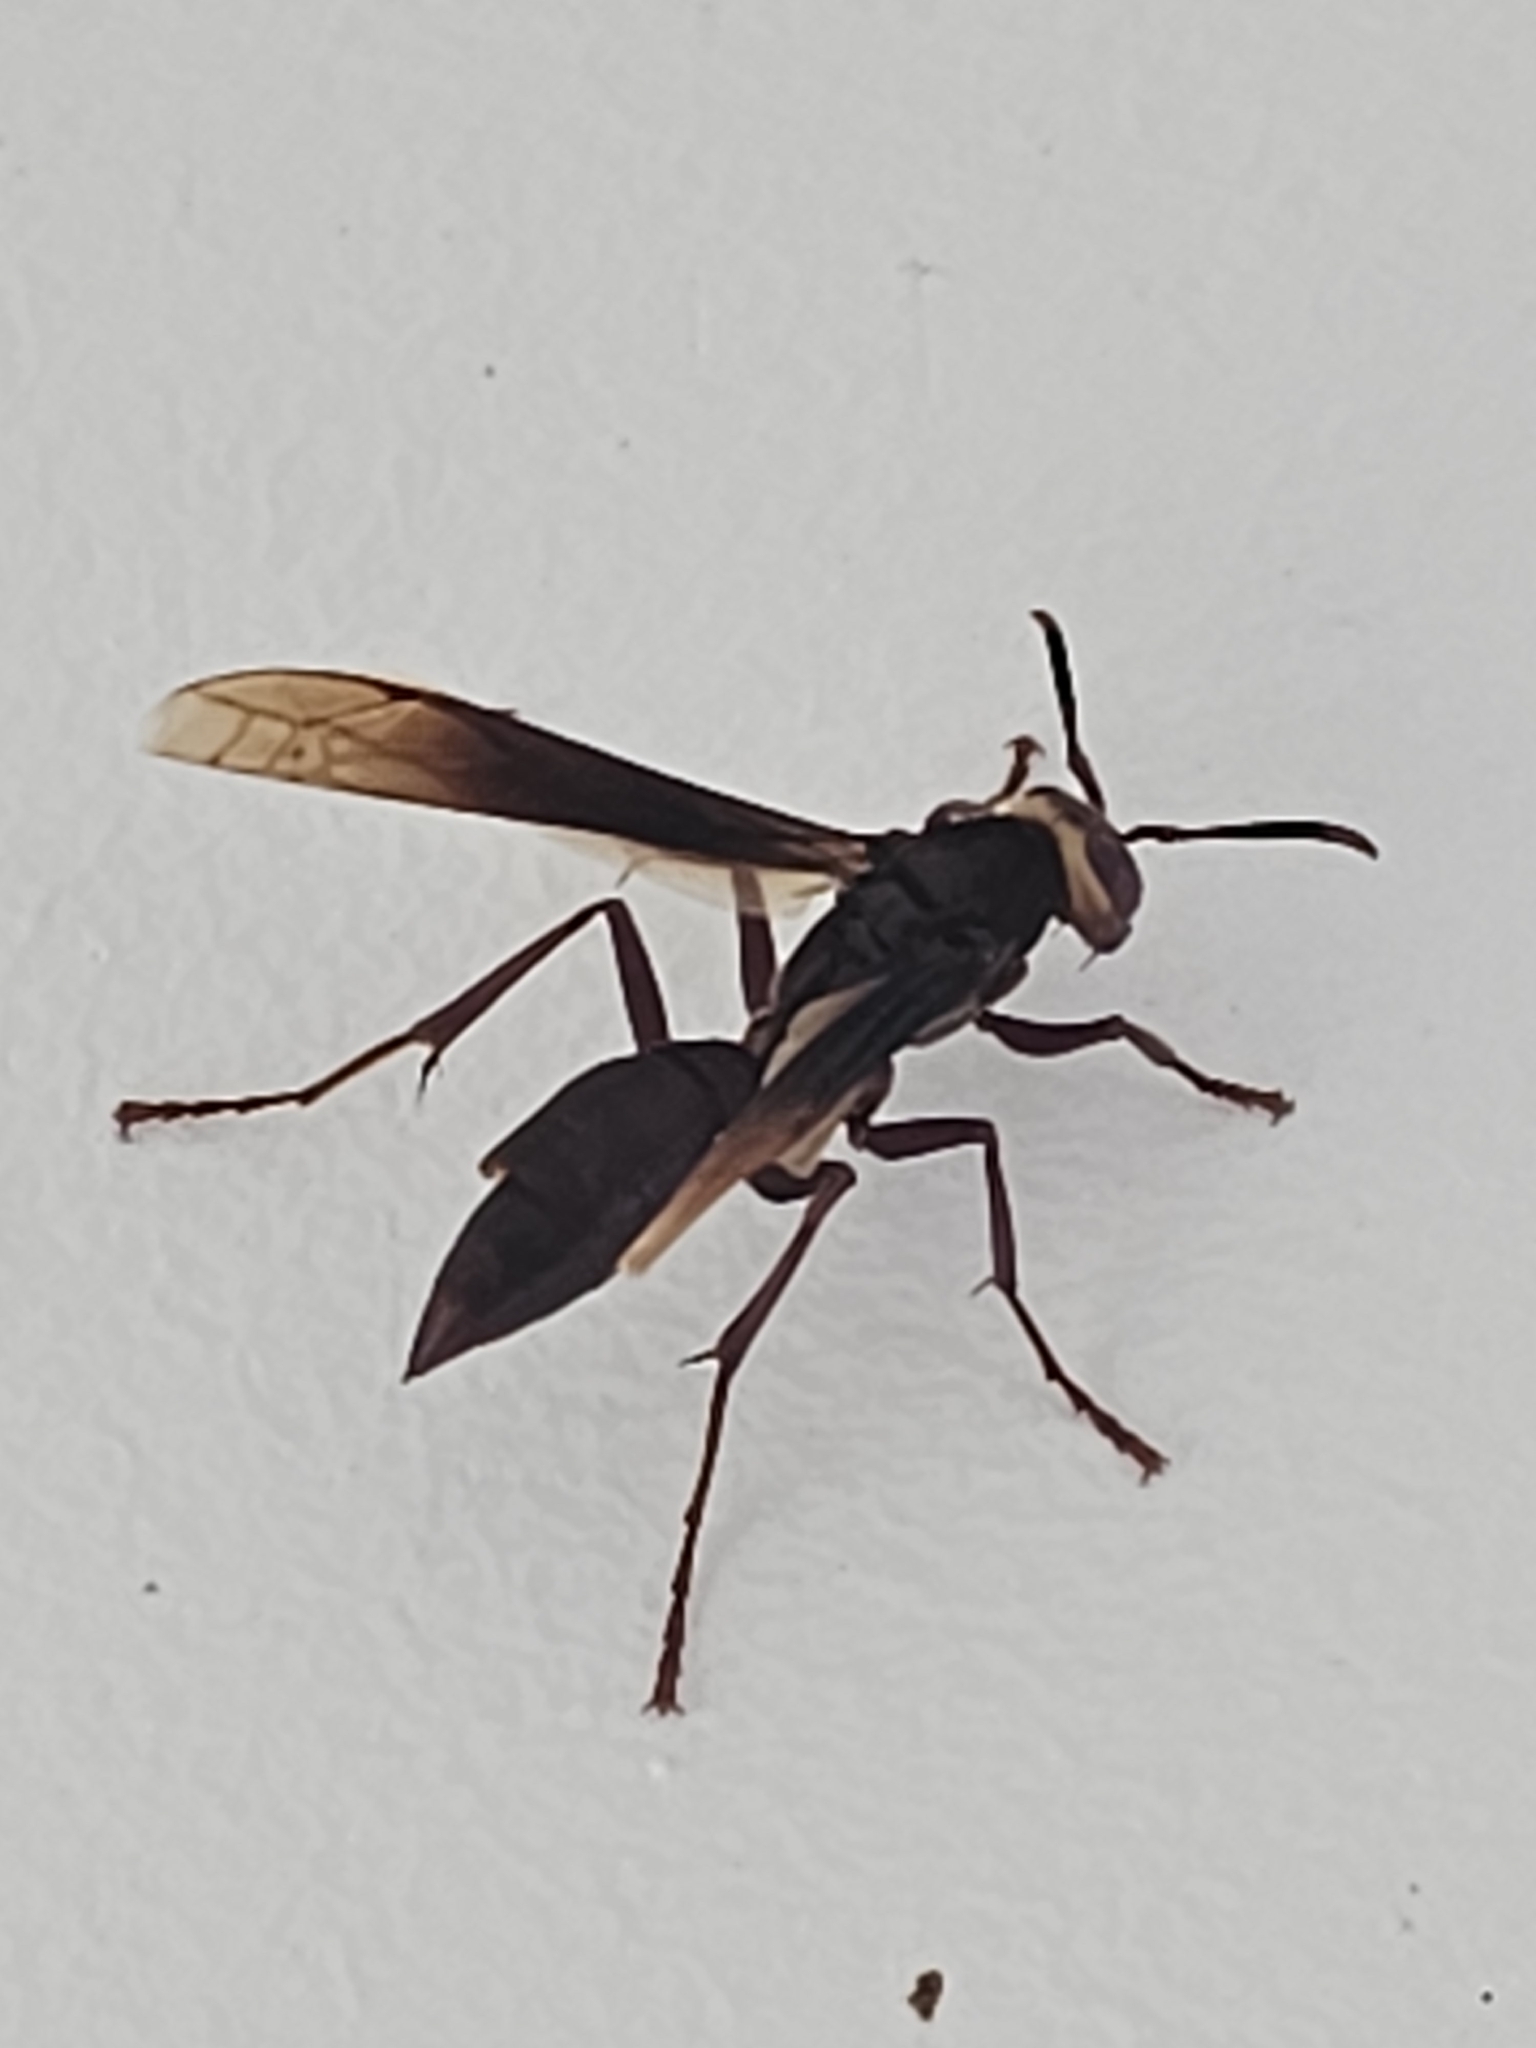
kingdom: Animalia
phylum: Arthropoda
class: Insecta
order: Hymenoptera
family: Eumenidae
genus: Polistes
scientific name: Polistes infuscatus
